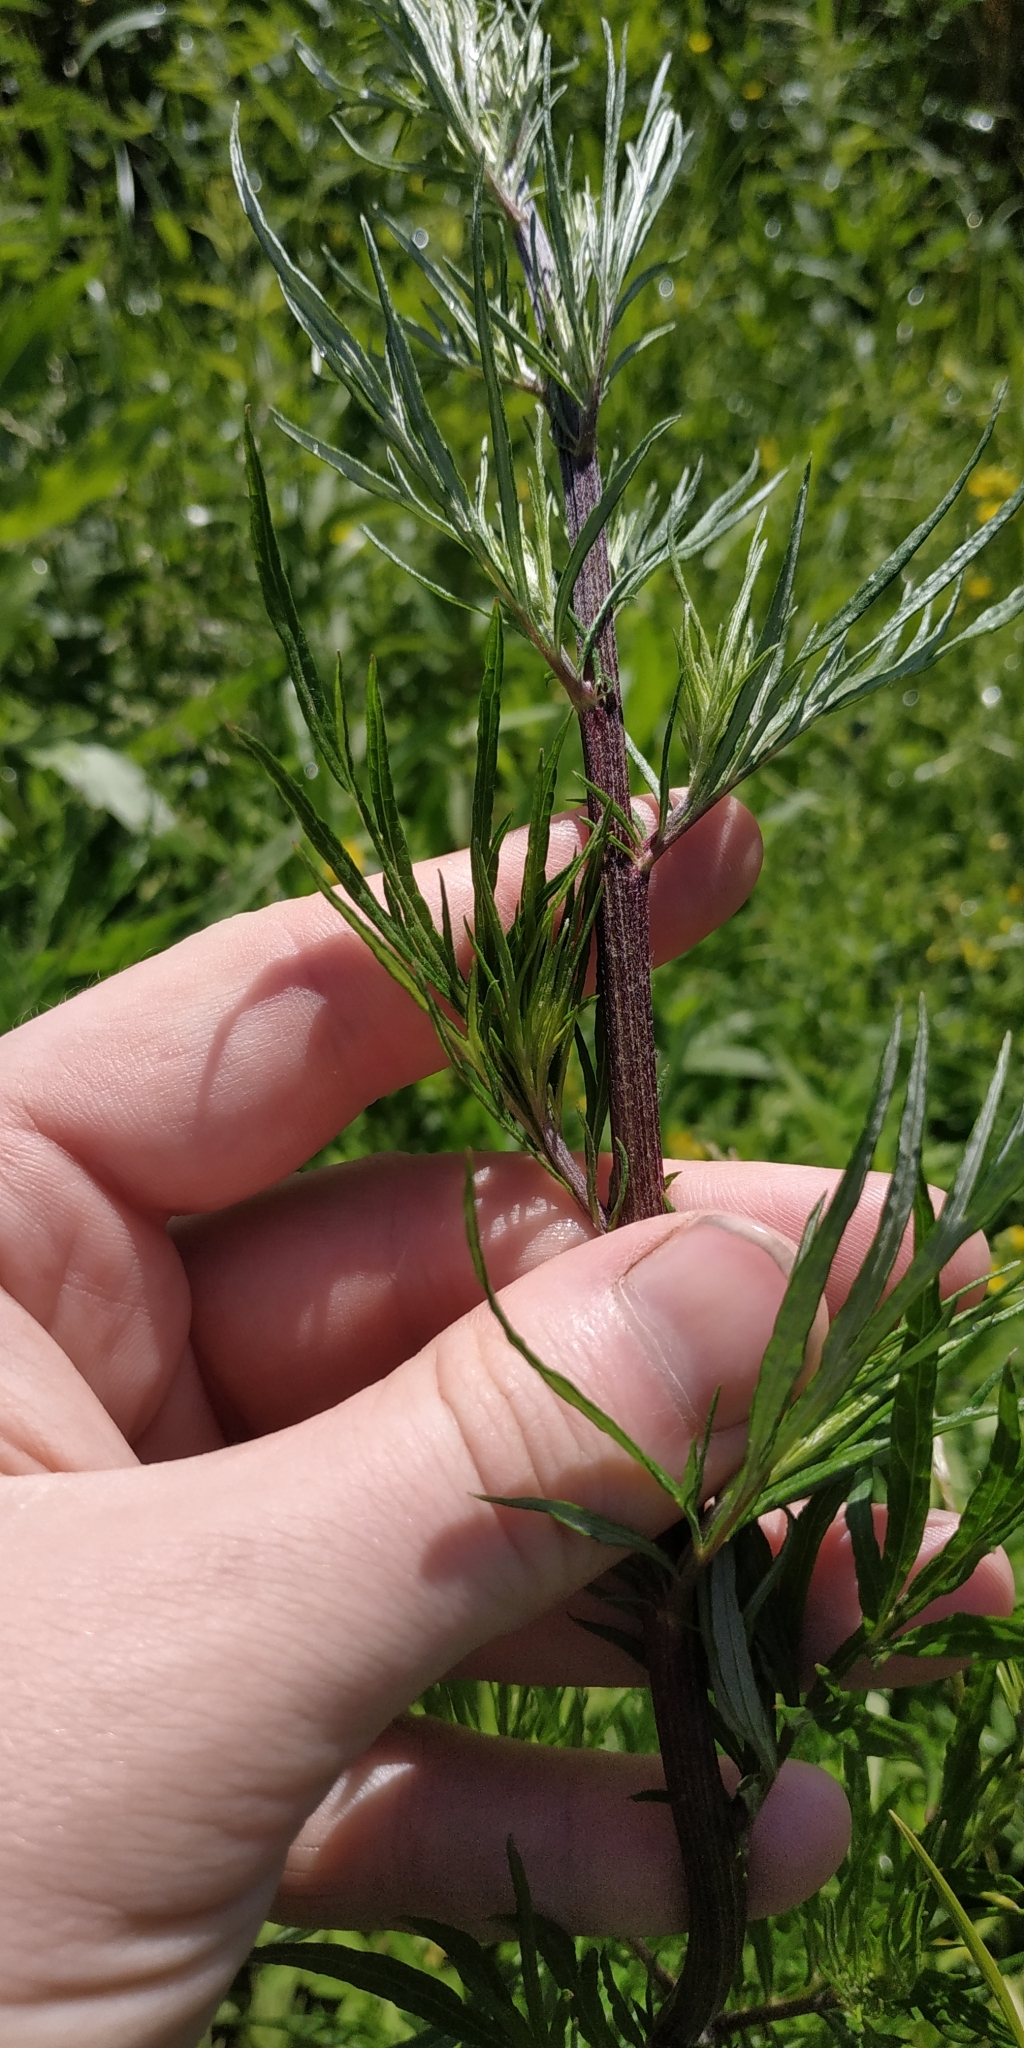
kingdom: Plantae
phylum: Tracheophyta
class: Magnoliopsida
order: Asterales
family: Asteraceae
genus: Artemisia
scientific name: Artemisia vulgaris
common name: Mugwort
